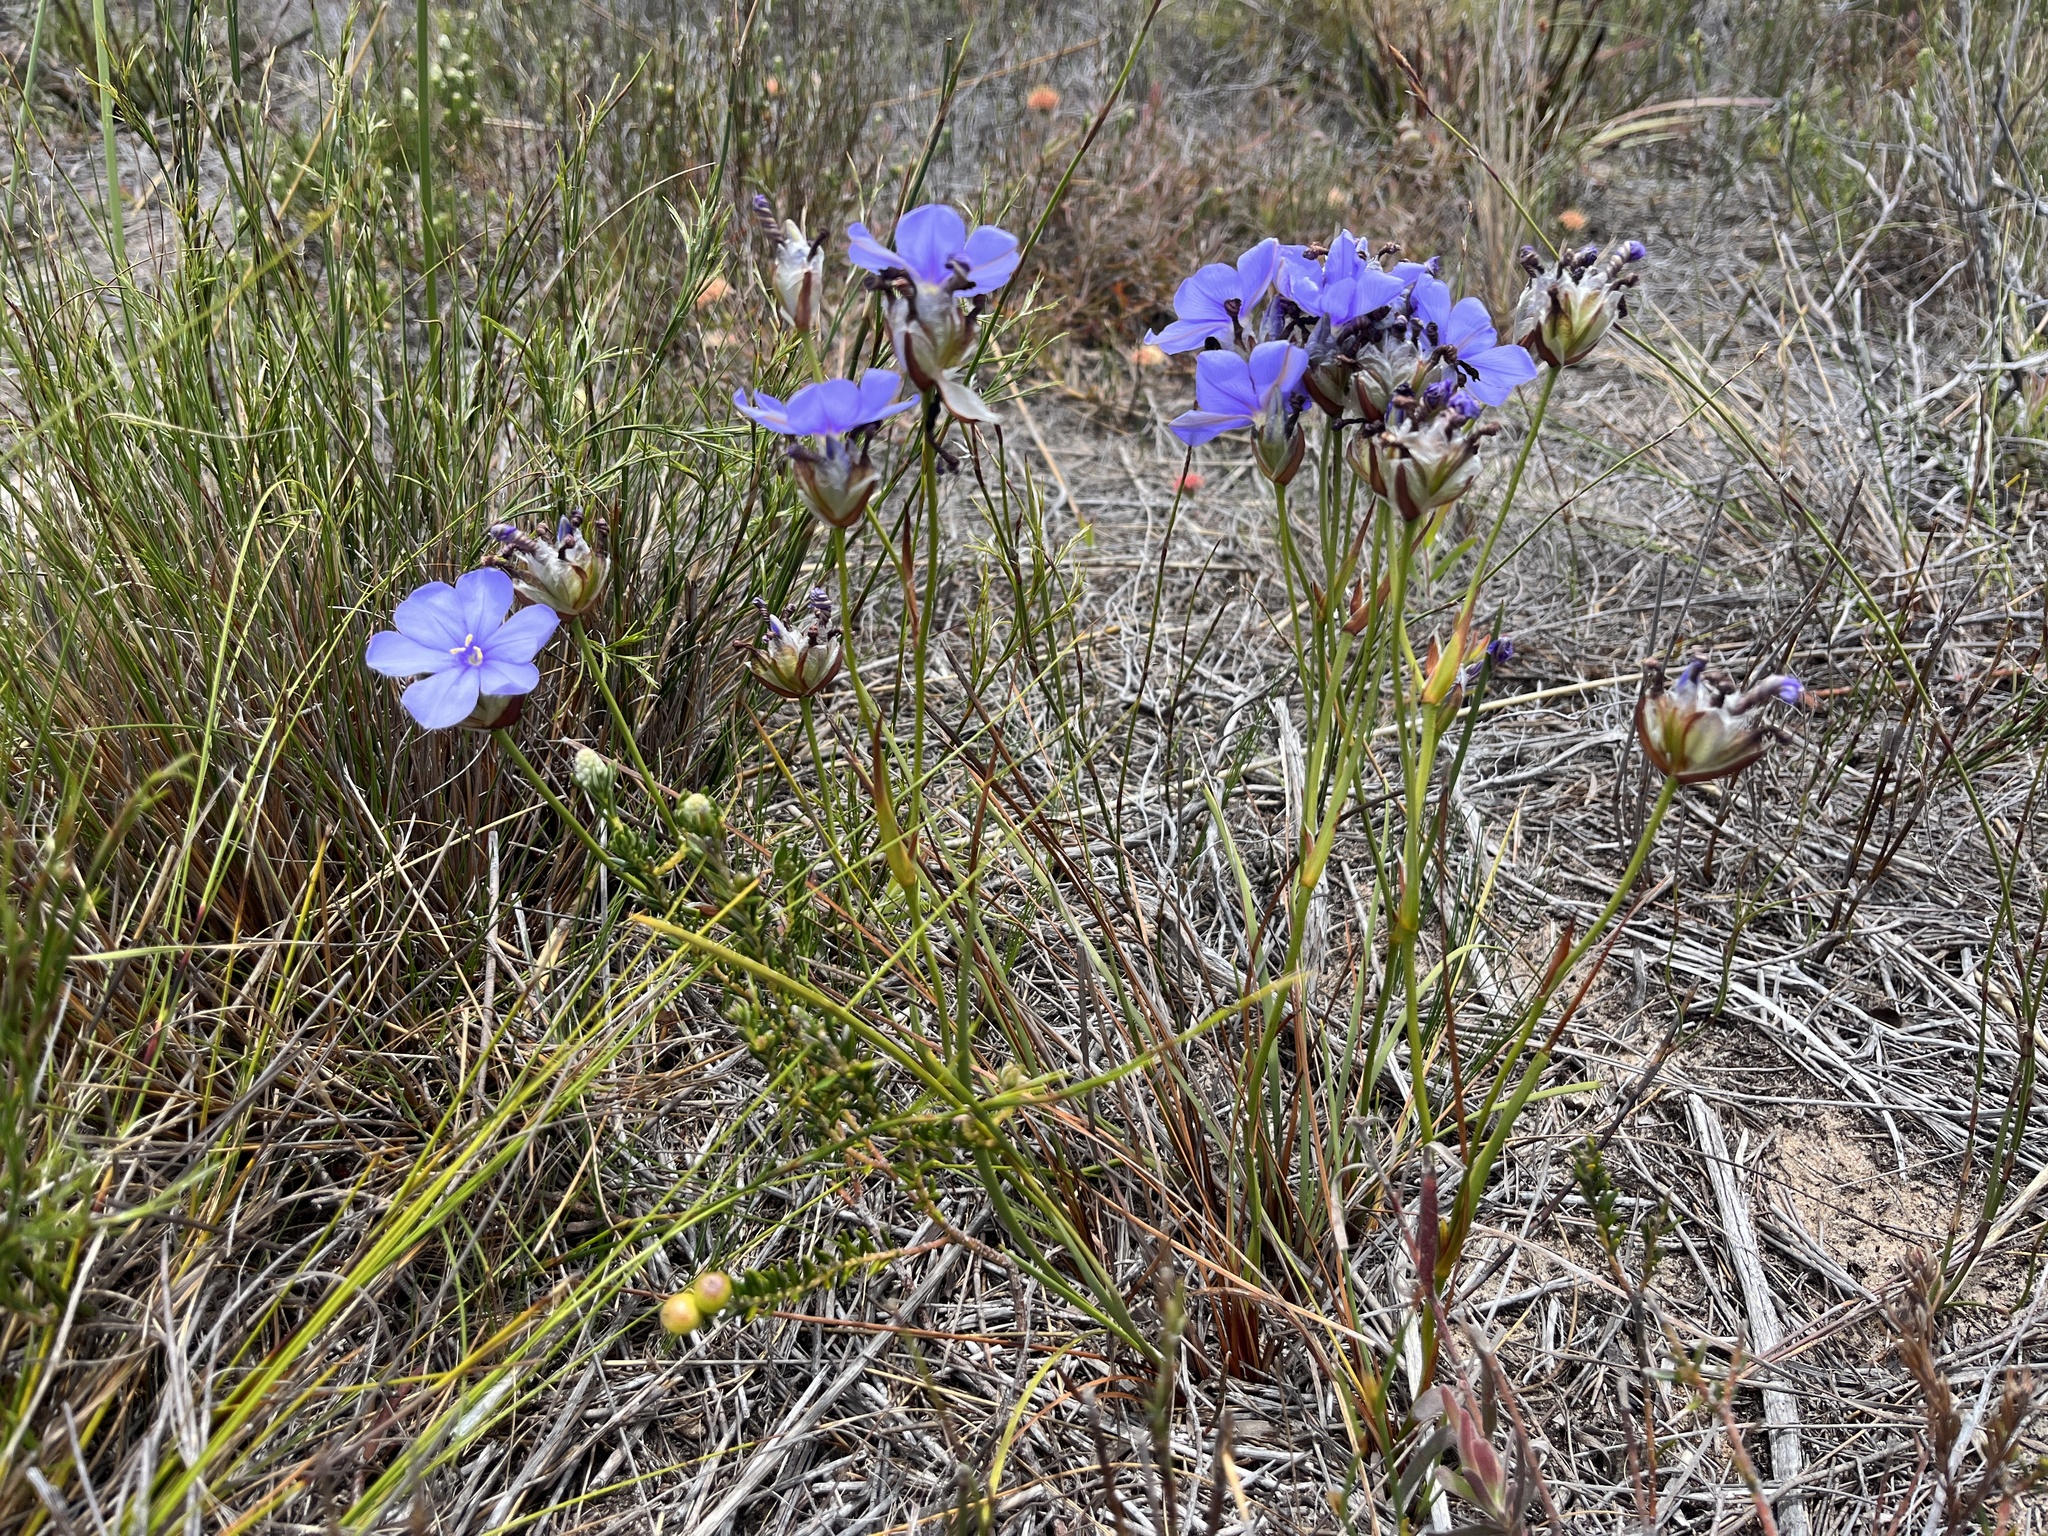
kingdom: Plantae
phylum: Tracheophyta
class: Liliopsida
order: Asparagales
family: Iridaceae
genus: Aristea
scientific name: Aristea oligocephala
